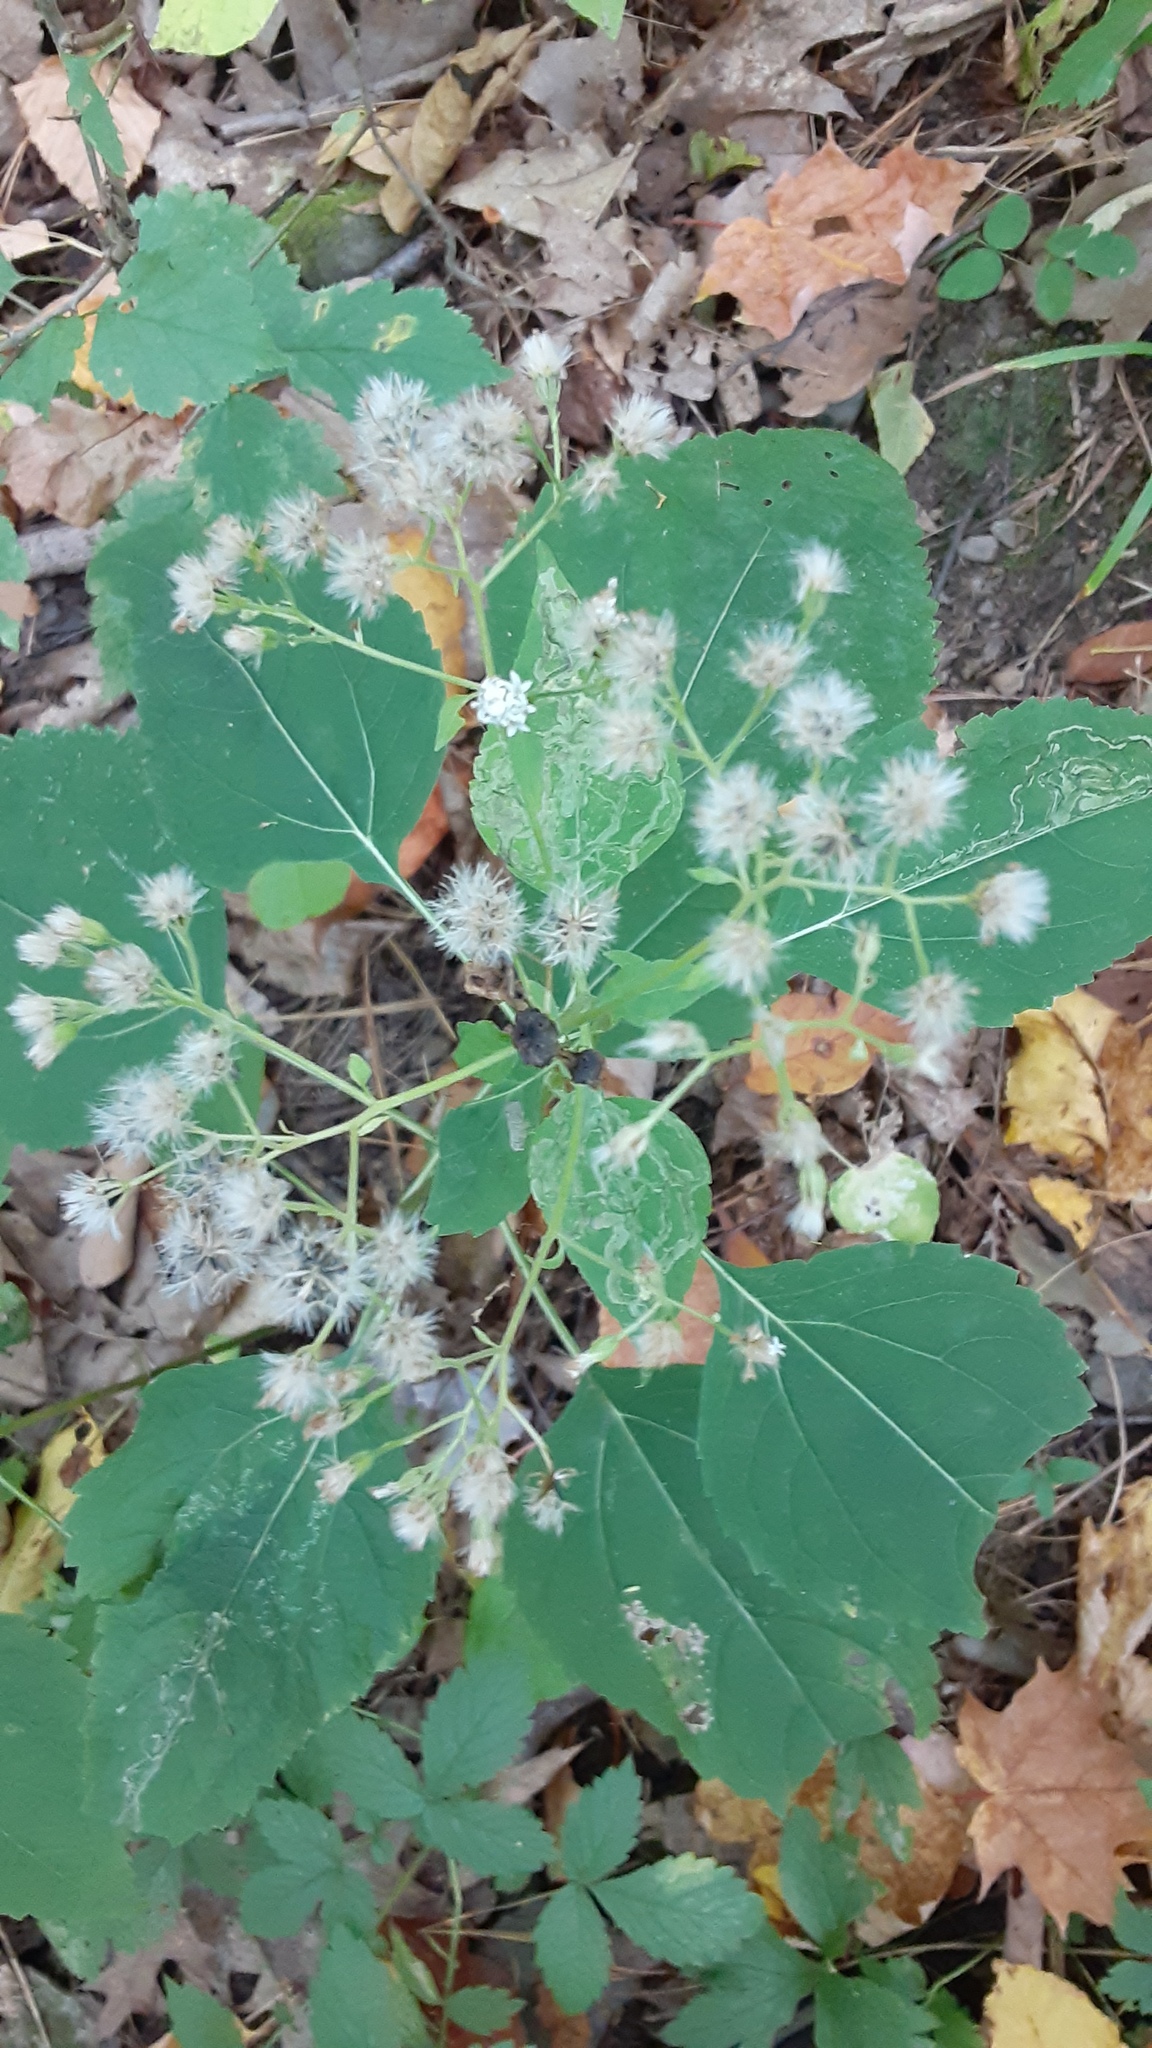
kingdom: Plantae
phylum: Tracheophyta
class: Magnoliopsida
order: Asterales
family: Asteraceae
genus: Ageratina
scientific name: Ageratina altissima
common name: White snakeroot
